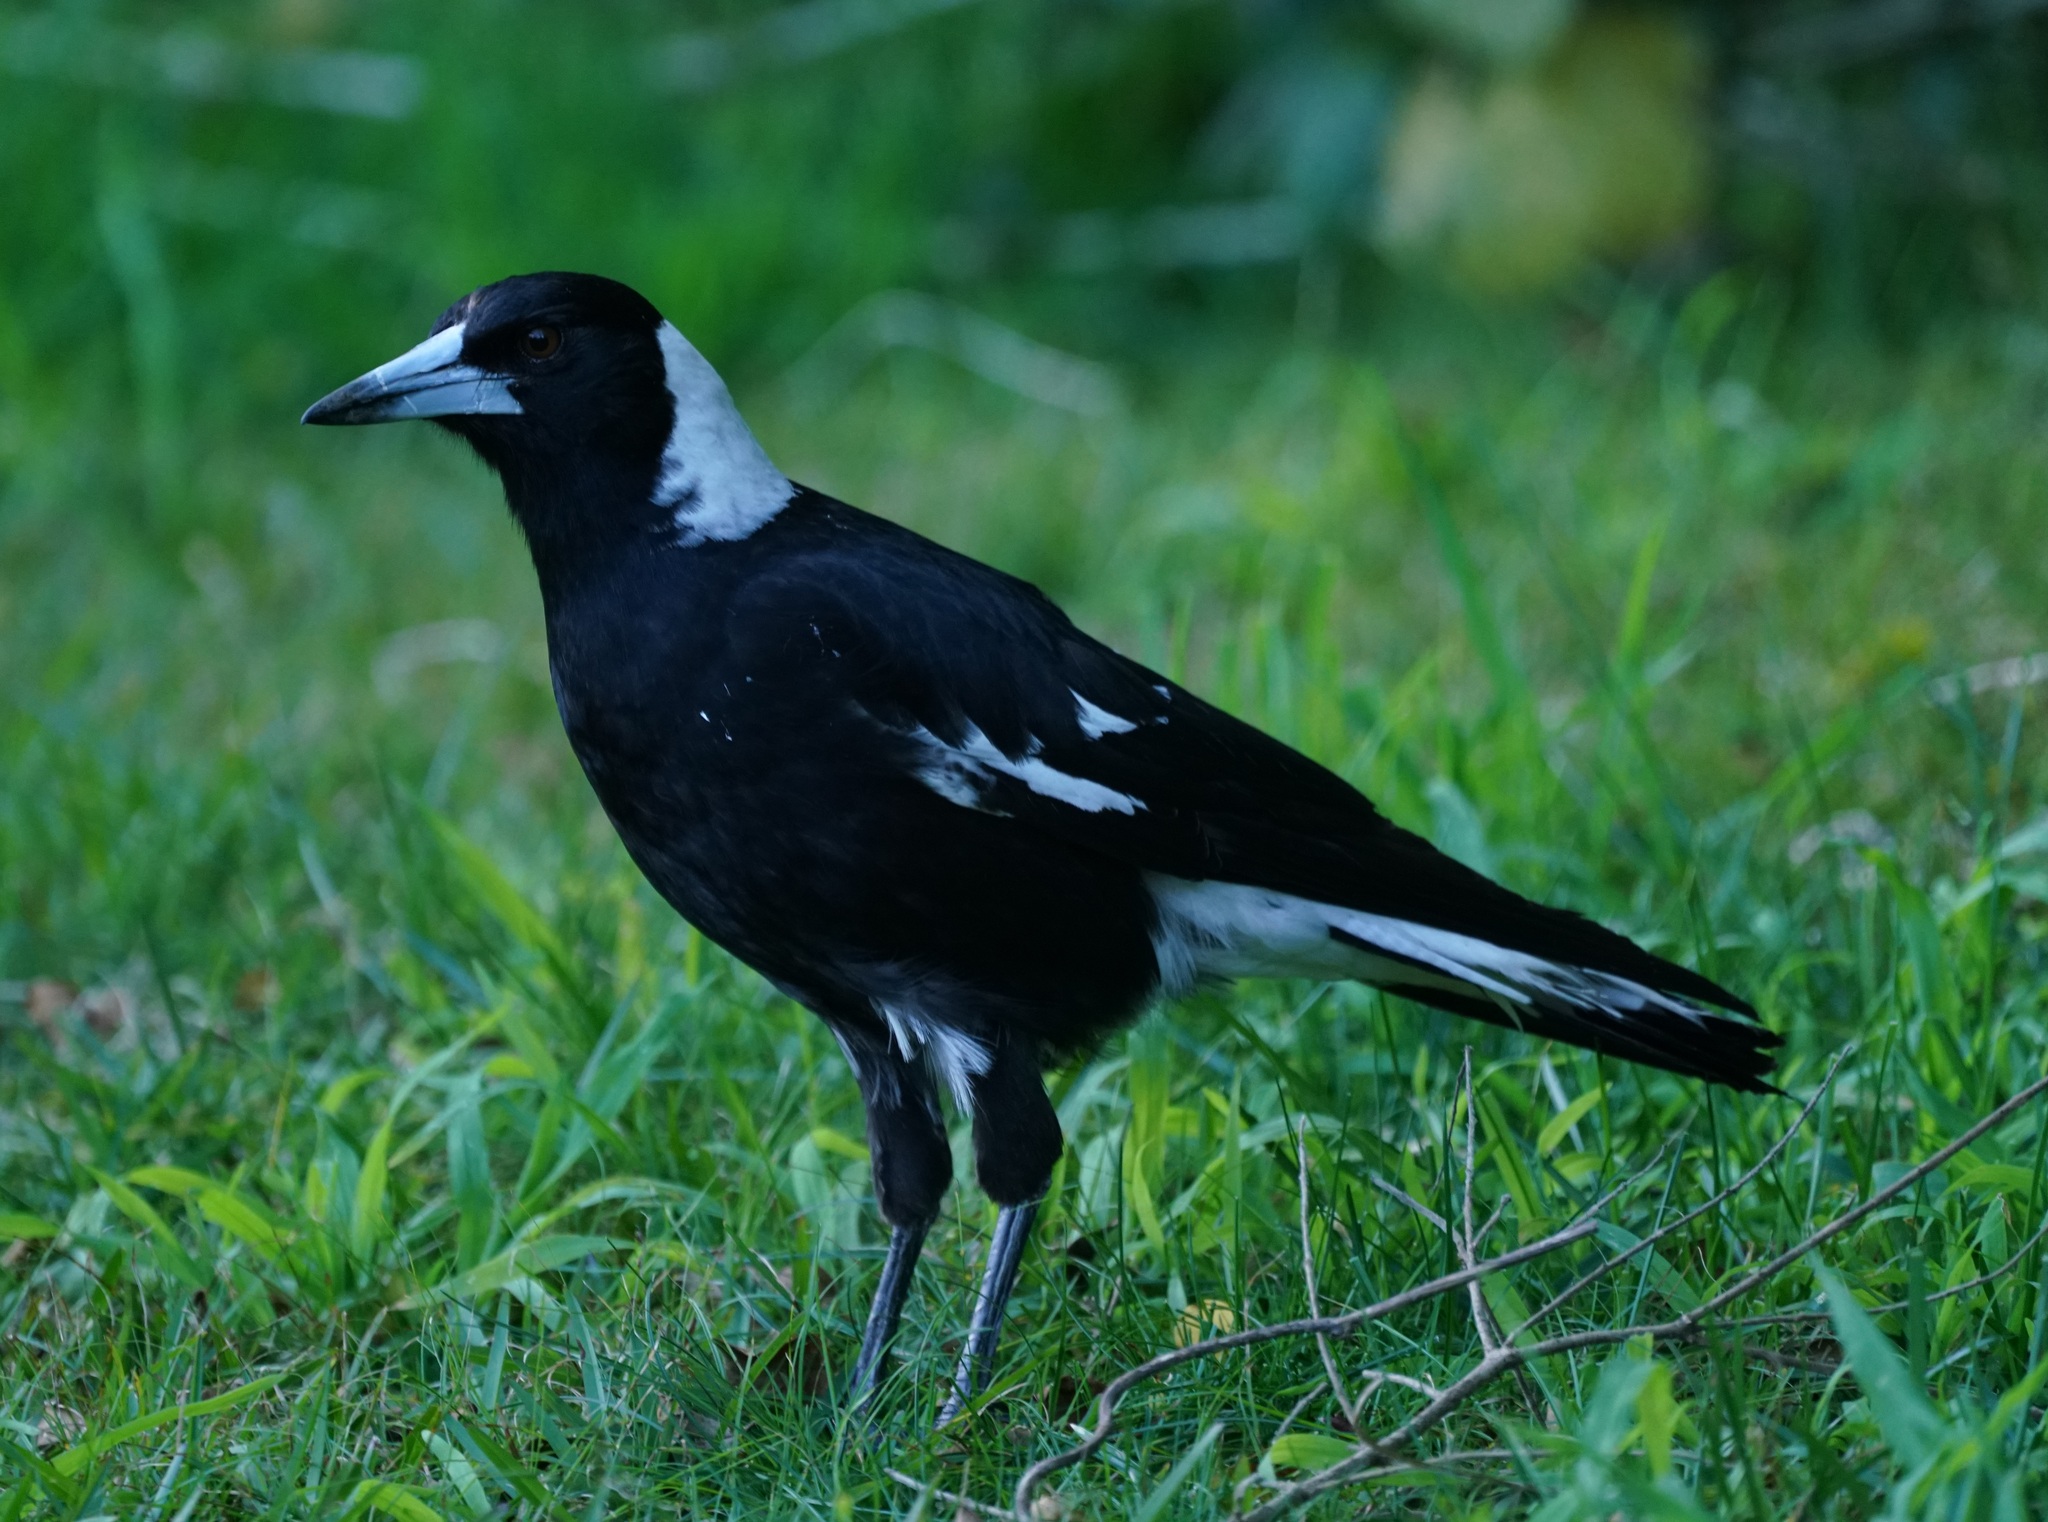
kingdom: Animalia
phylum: Chordata
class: Aves
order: Passeriformes
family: Cracticidae
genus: Gymnorhina
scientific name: Gymnorhina tibicen
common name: Australian magpie
